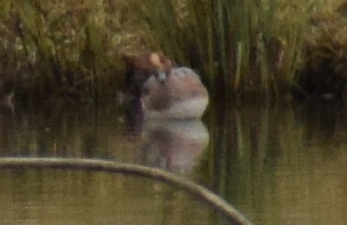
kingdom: Animalia
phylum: Chordata
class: Aves
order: Anseriformes
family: Anatidae
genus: Mareca
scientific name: Mareca penelope
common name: Eurasian wigeon
